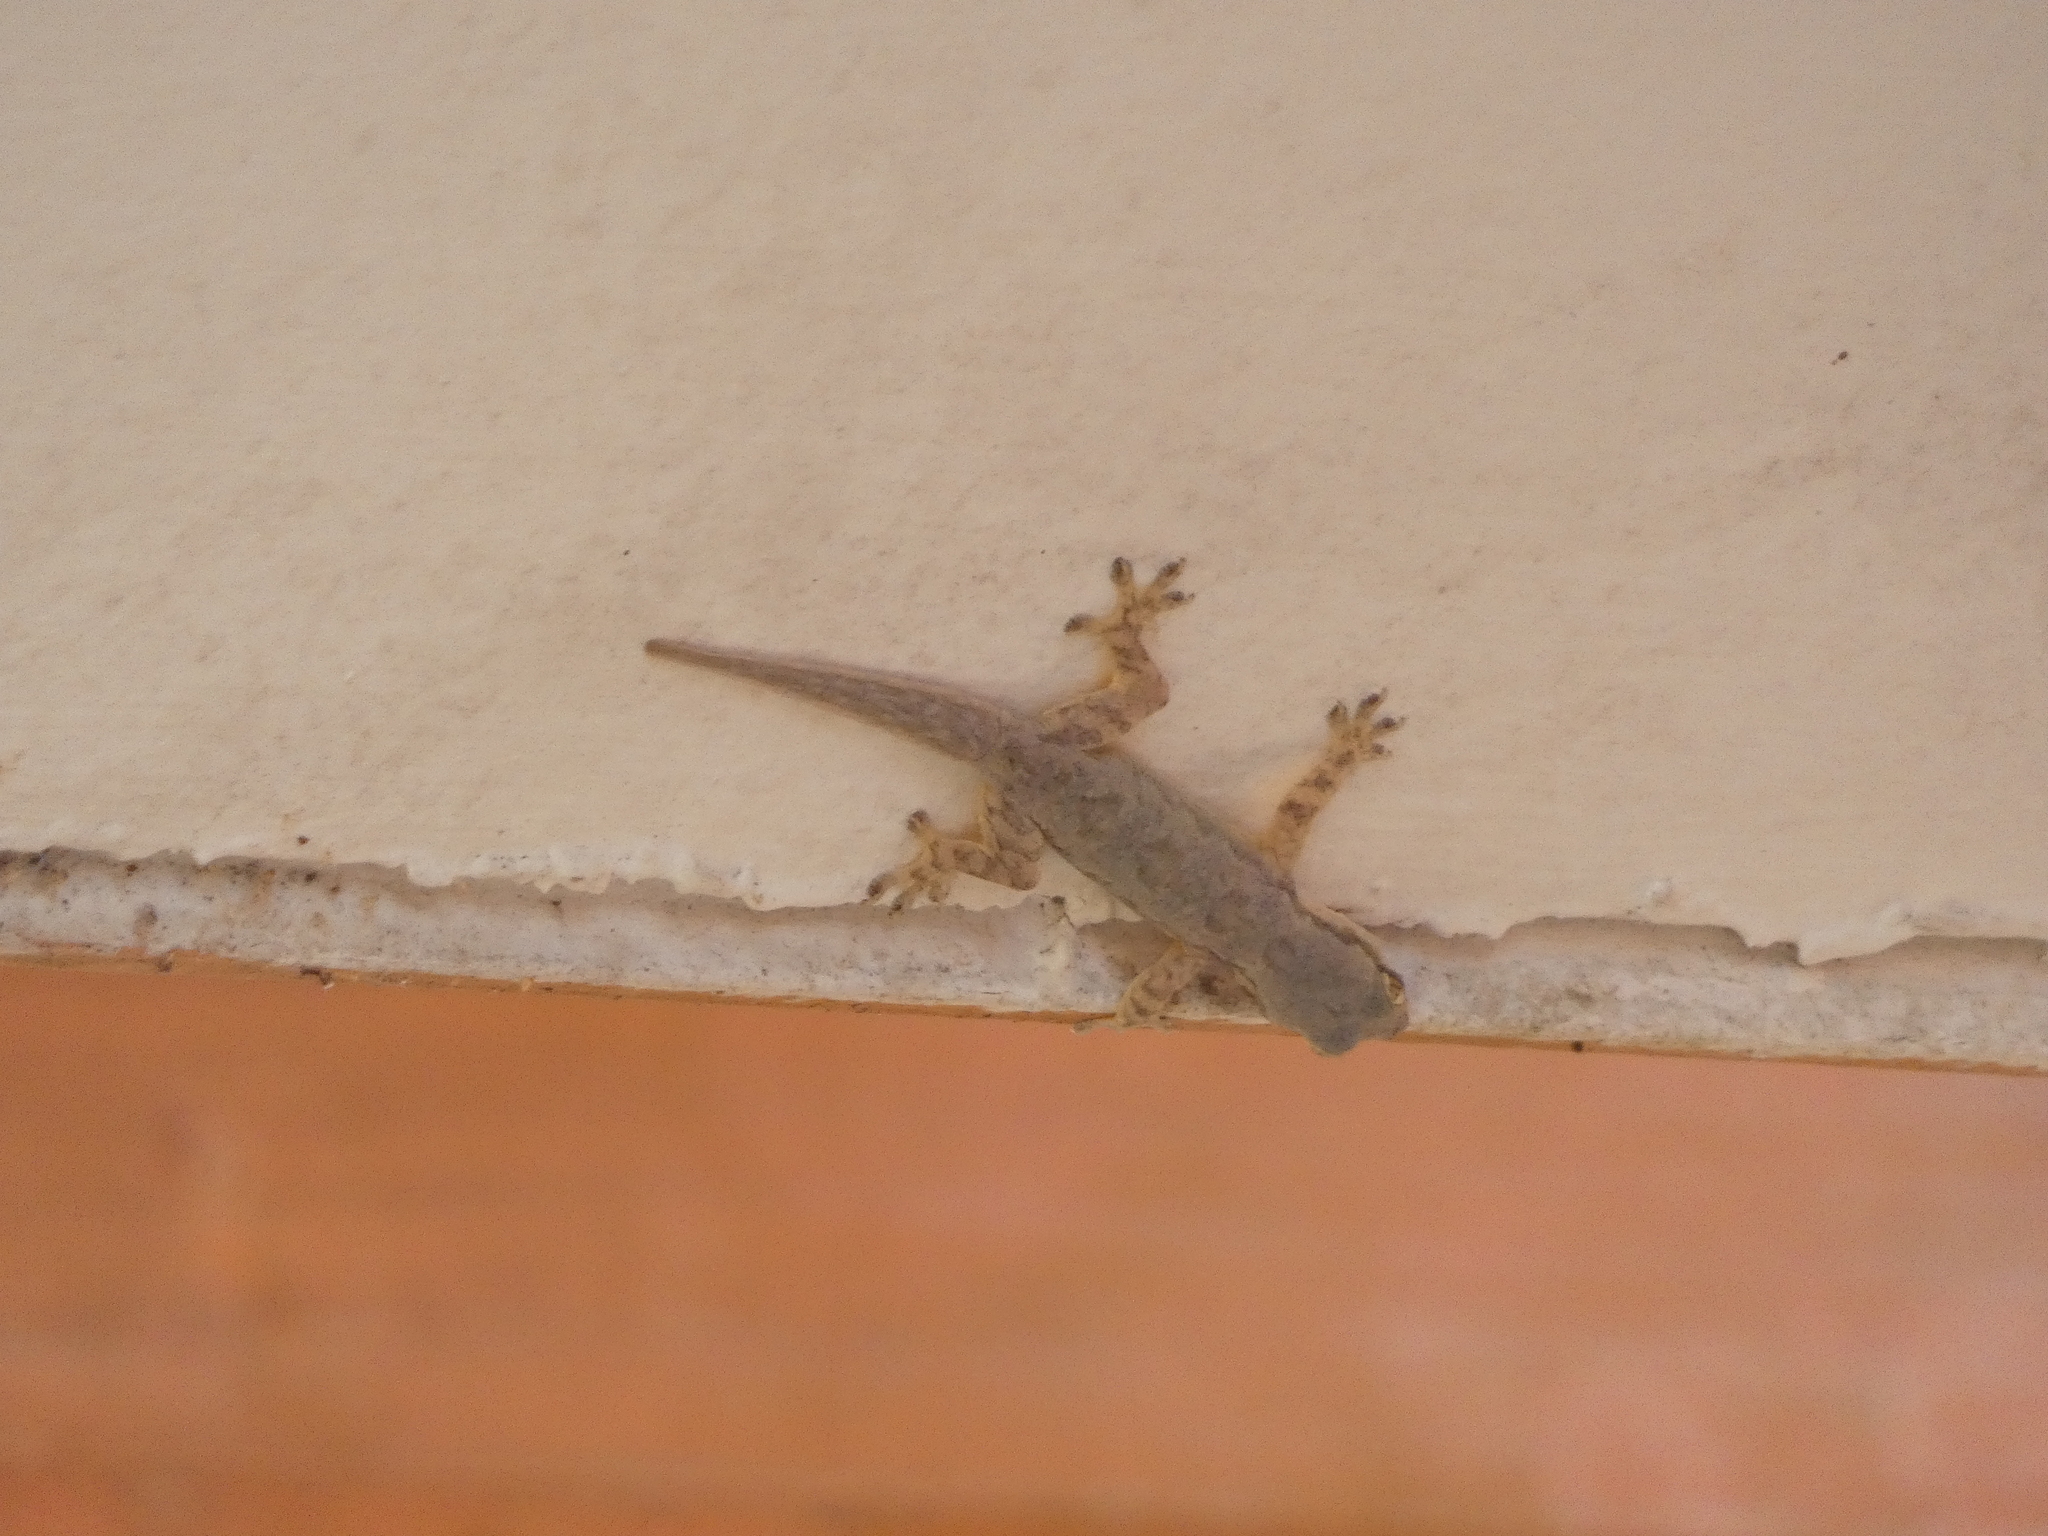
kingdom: Animalia
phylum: Chordata
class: Squamata
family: Gekkonidae
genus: Hemidactylus
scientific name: Hemidactylus platyurus
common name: Flat-tailed house gecko
